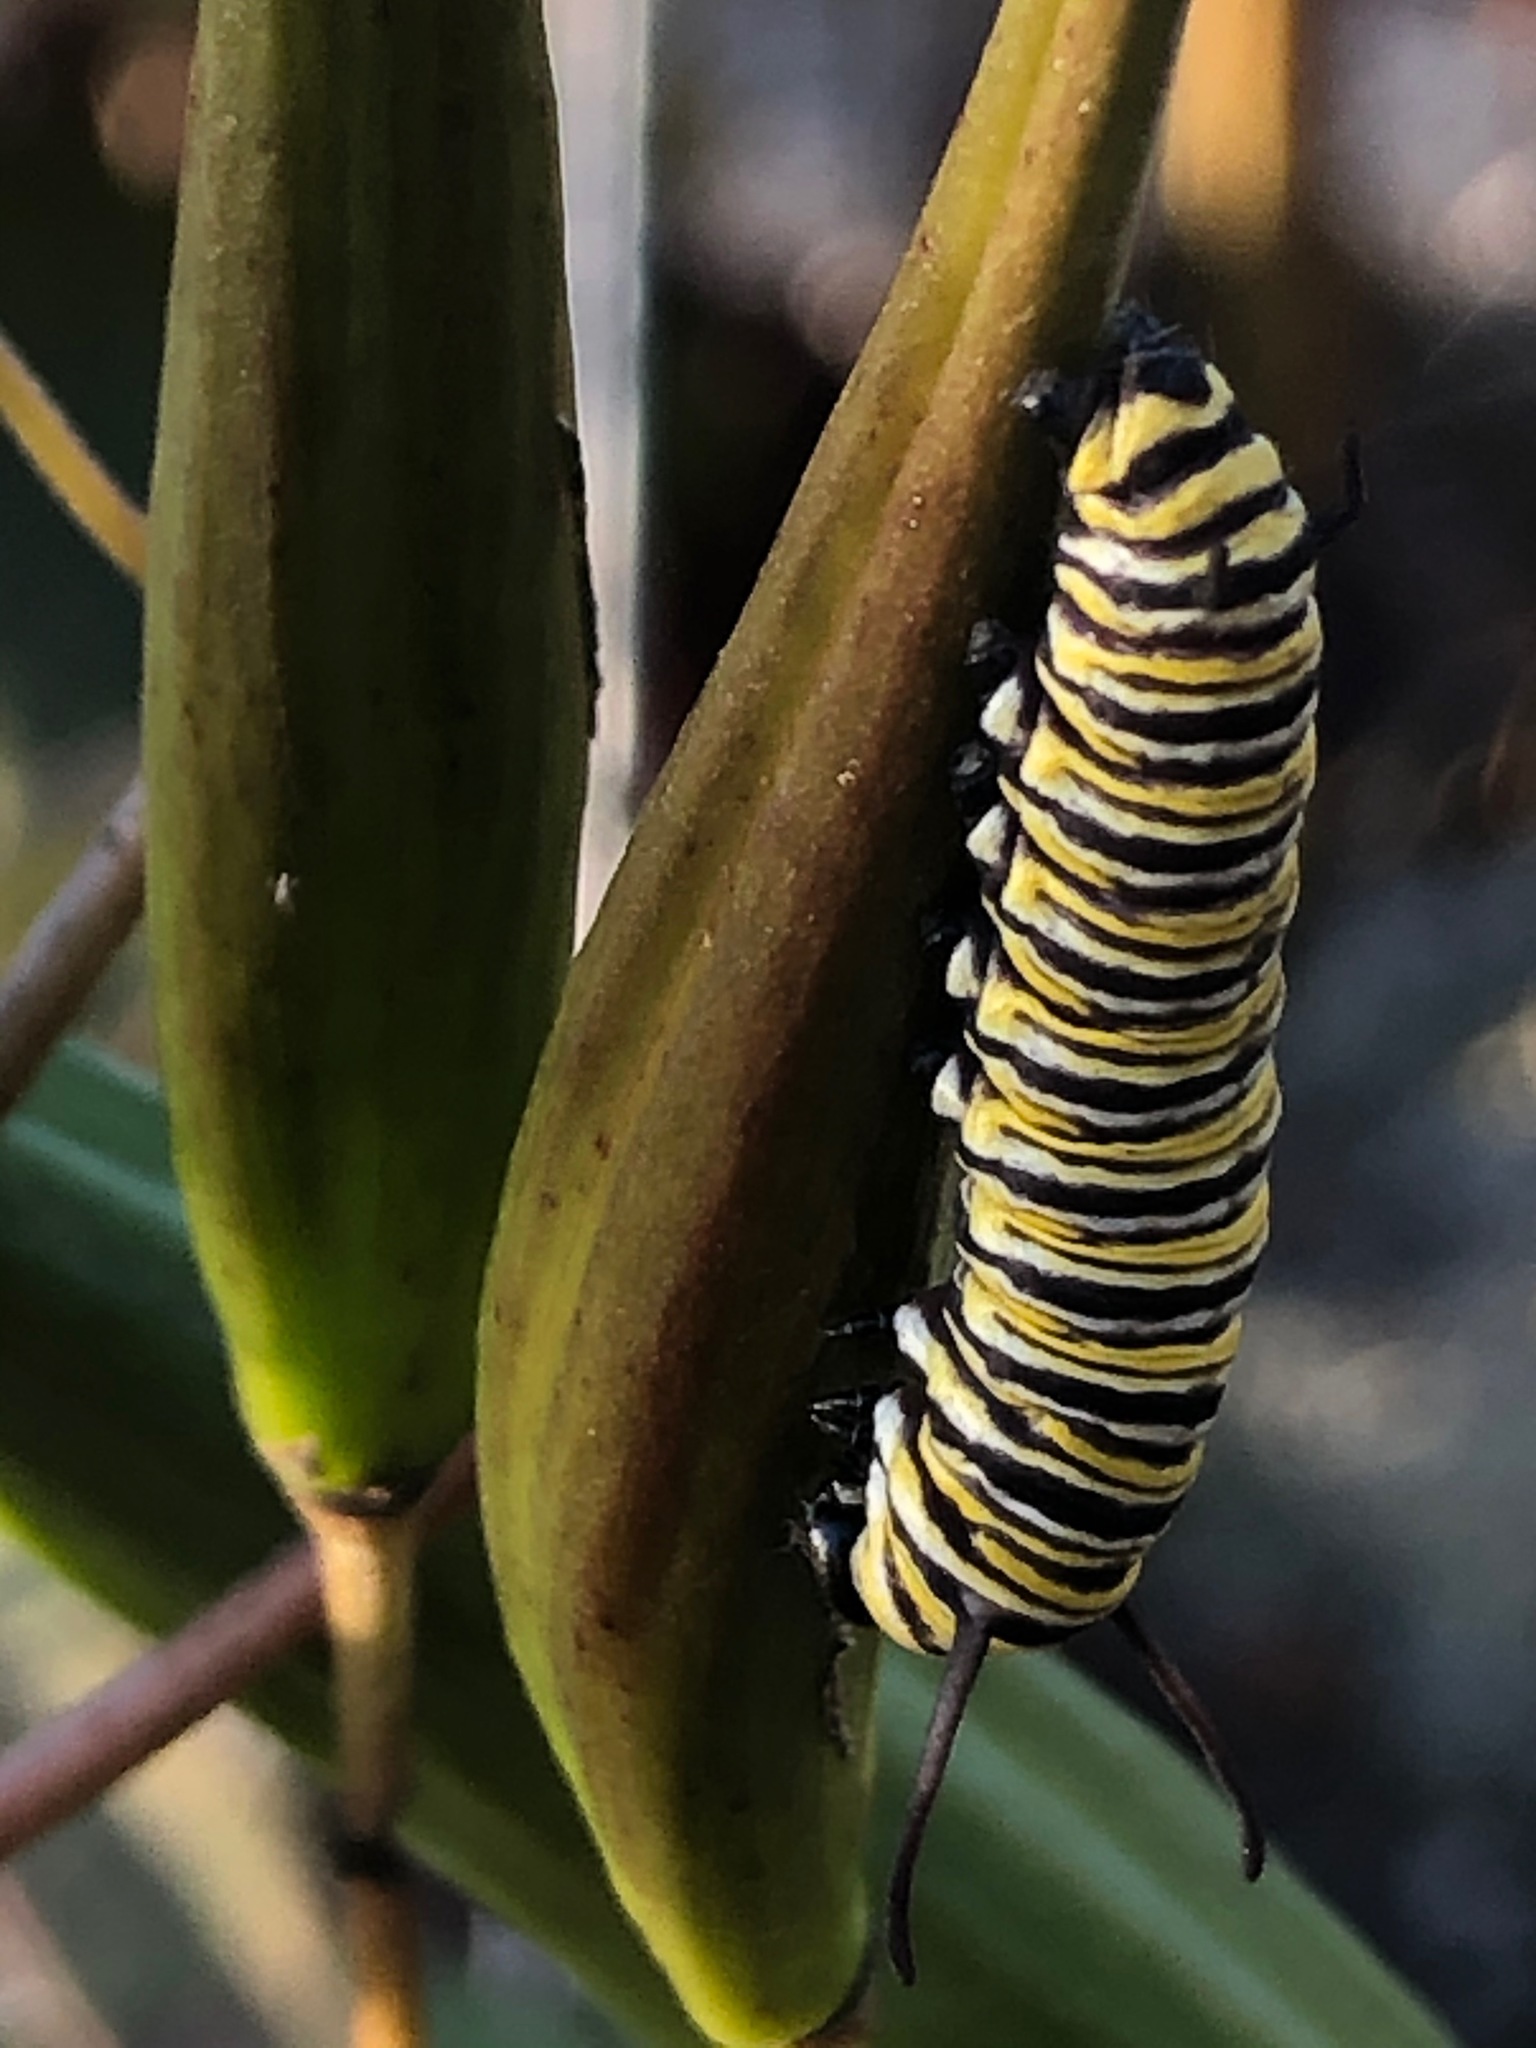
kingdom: Animalia
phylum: Arthropoda
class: Insecta
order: Lepidoptera
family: Nymphalidae
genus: Danaus
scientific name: Danaus plexippus
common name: Monarch
